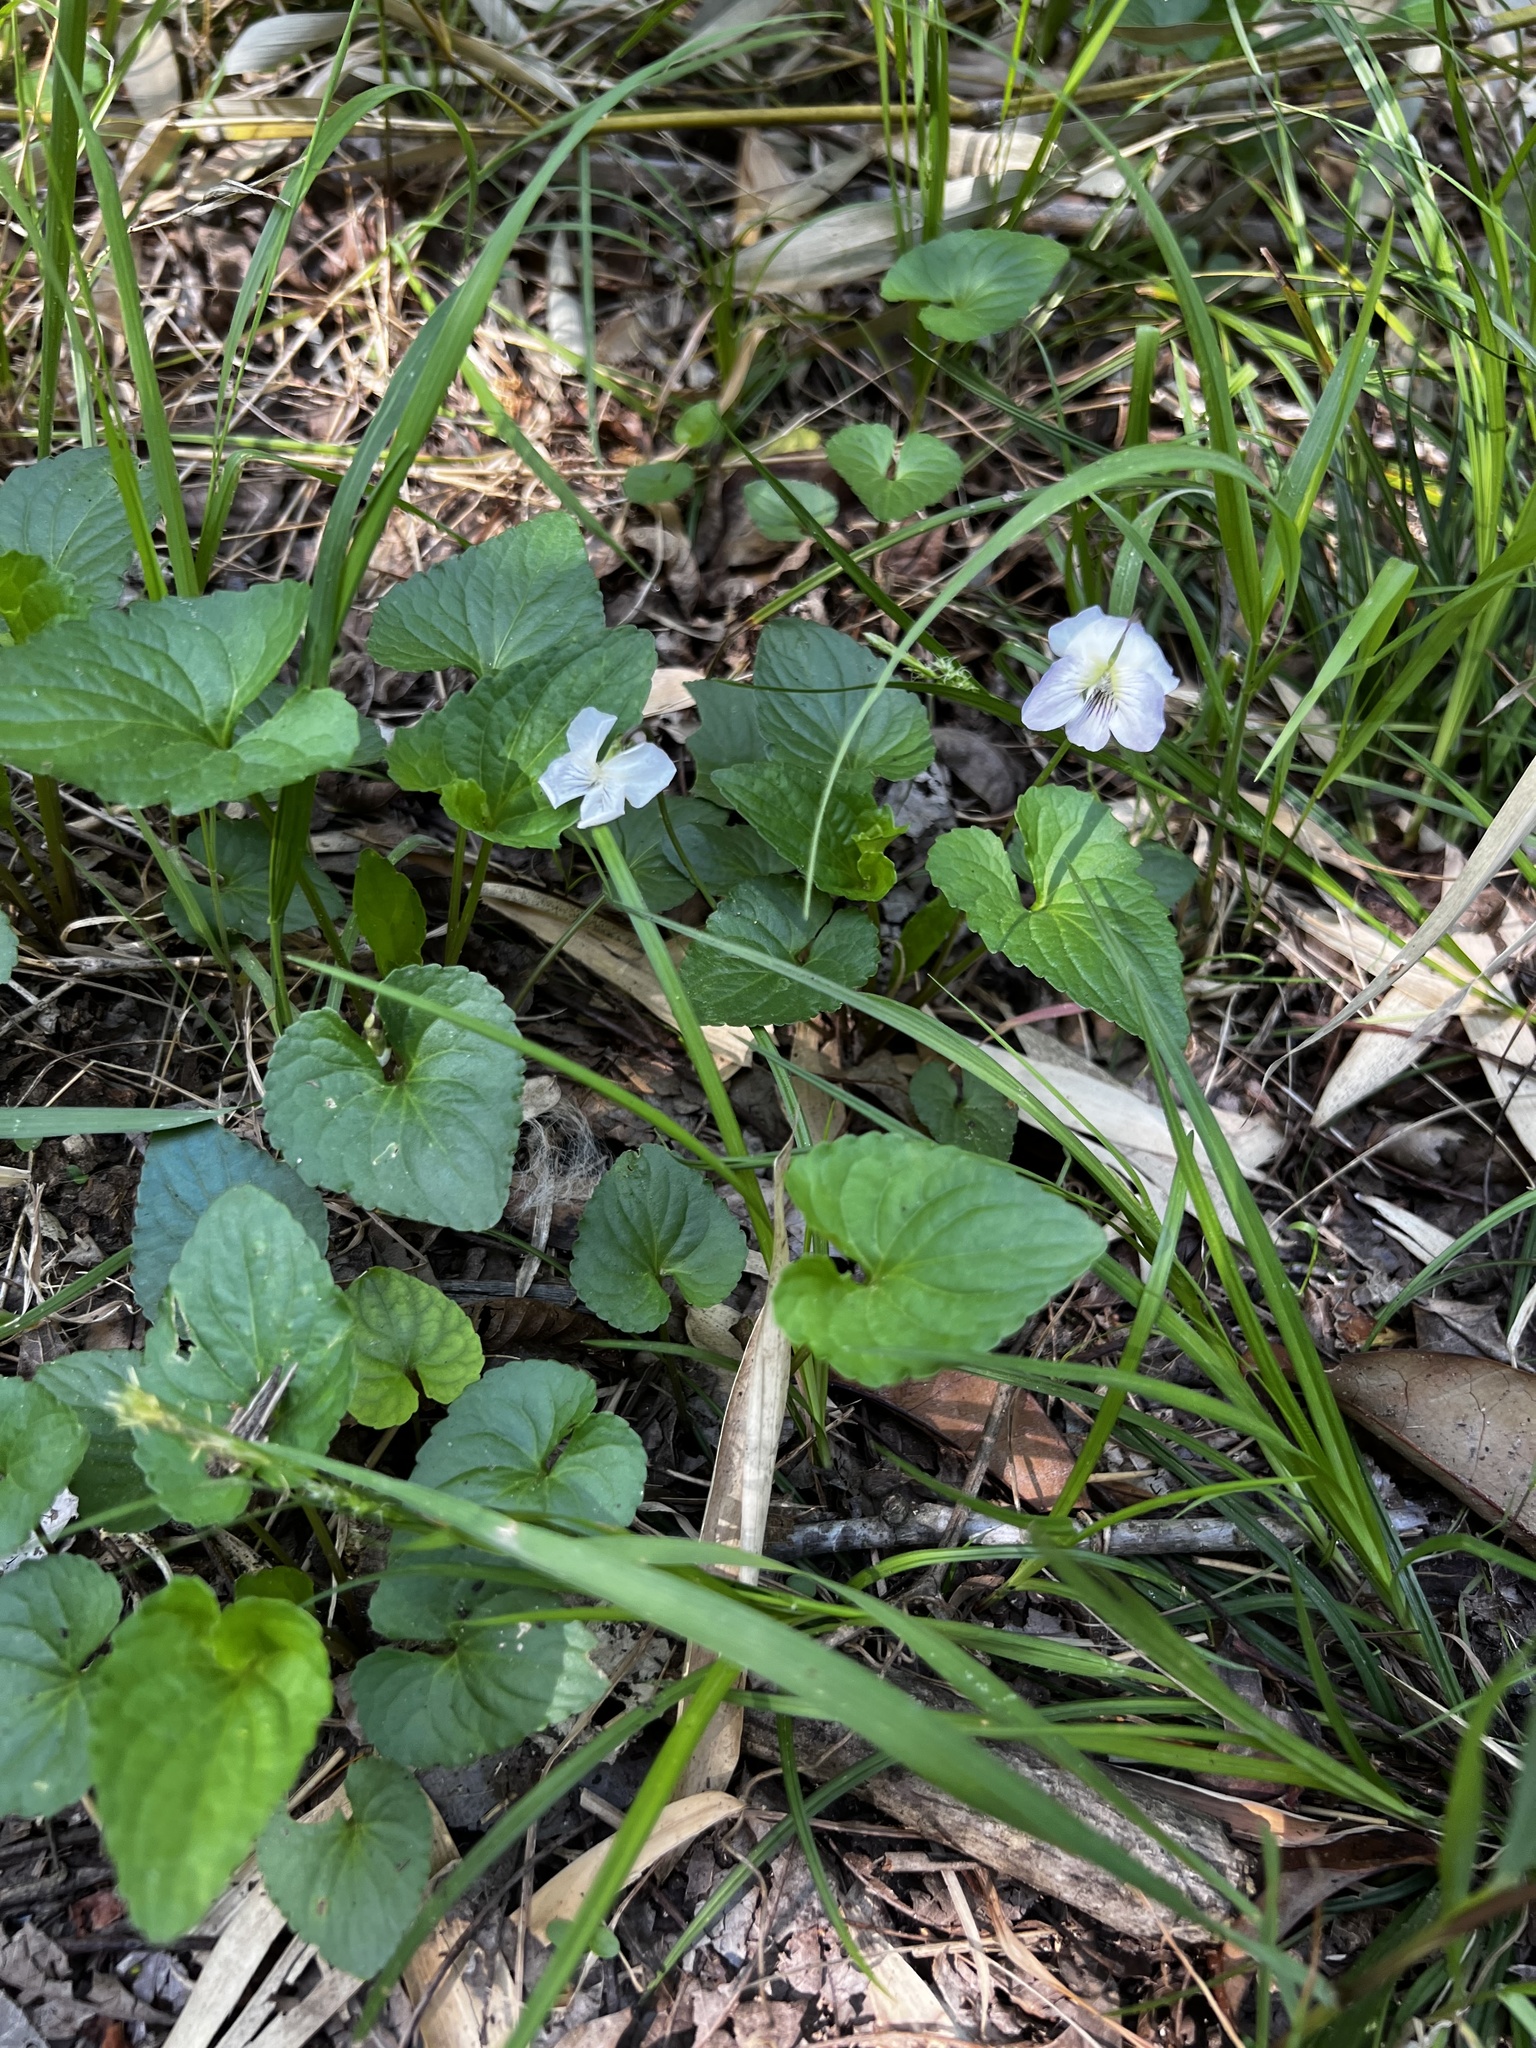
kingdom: Plantae
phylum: Tracheophyta
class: Magnoliopsida
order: Malpighiales
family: Violaceae
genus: Viola
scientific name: Viola missouriensis
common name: Missouri violet
